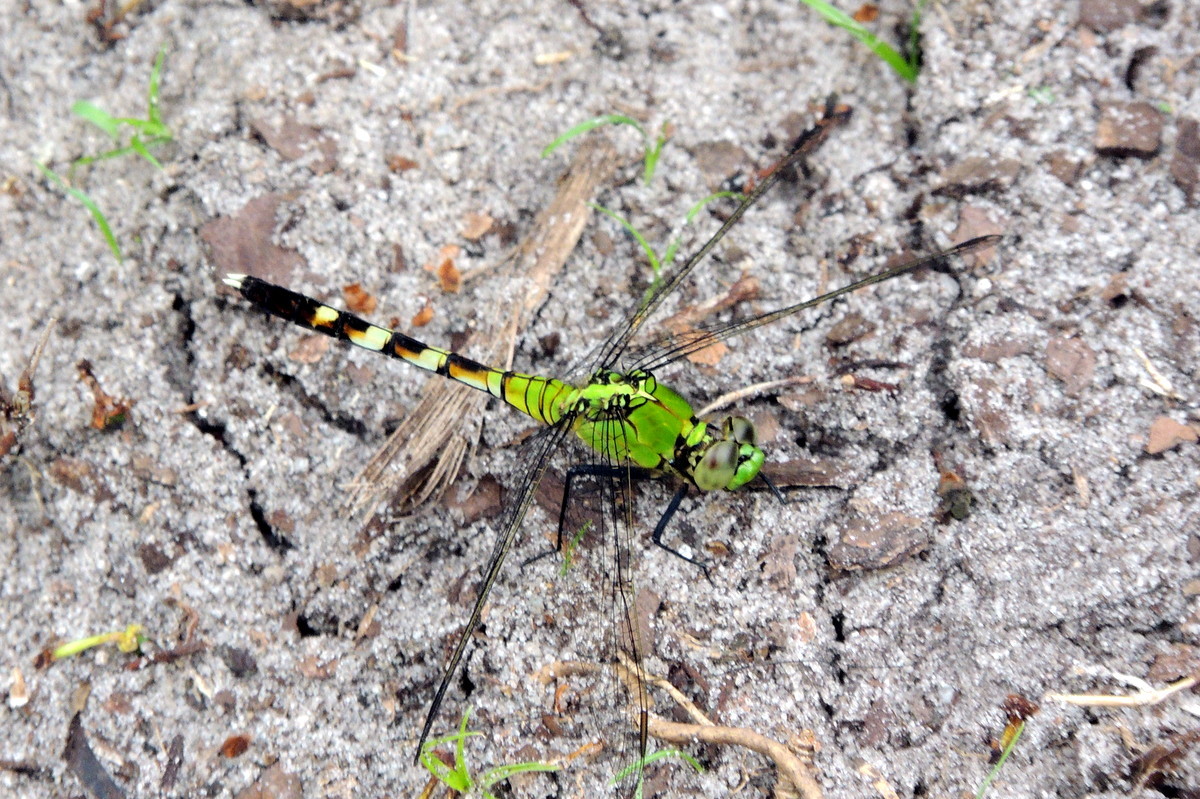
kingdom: Animalia
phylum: Arthropoda
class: Insecta
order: Odonata
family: Libellulidae
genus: Erythemis
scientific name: Erythemis simplicicollis
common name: Eastern pondhawk
